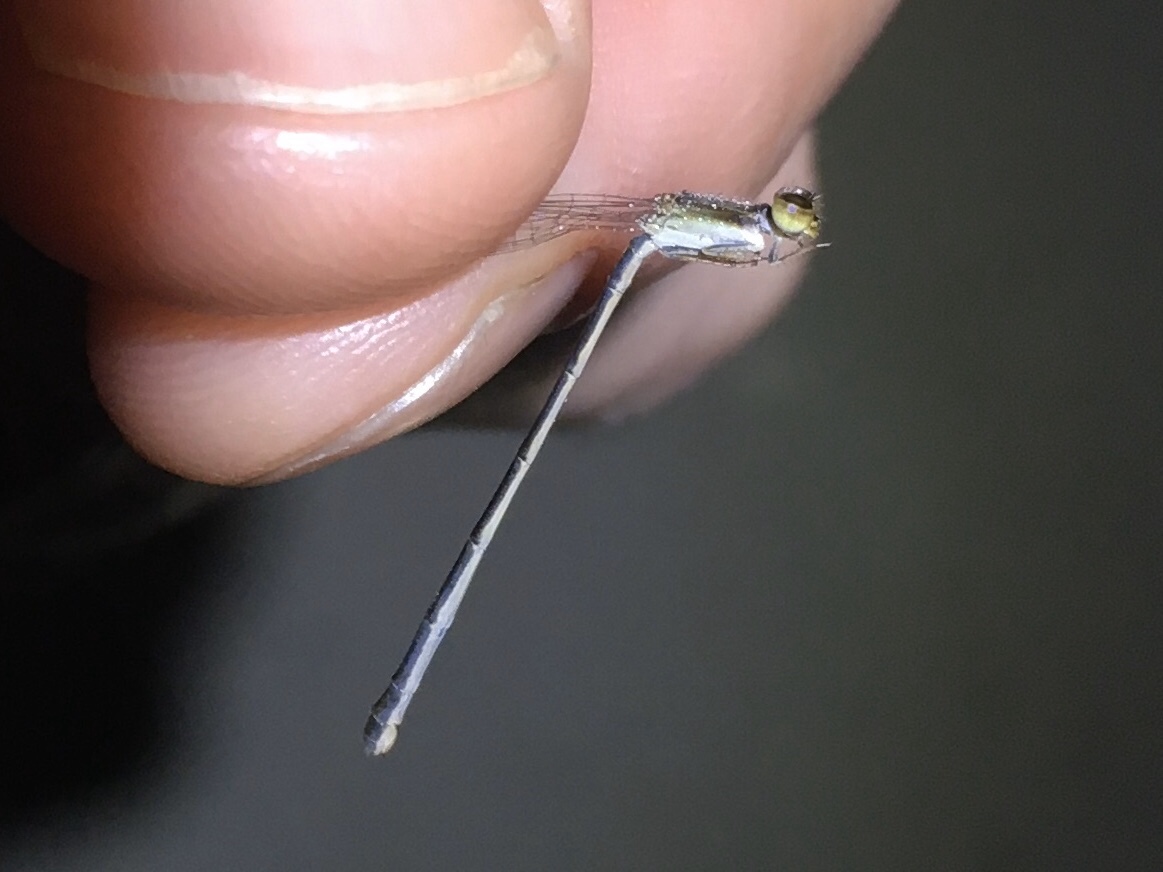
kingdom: Animalia
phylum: Arthropoda
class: Insecta
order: Odonata
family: Coenagrionidae
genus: Ischnura
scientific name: Ischnura hastata
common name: Citrine forktail
